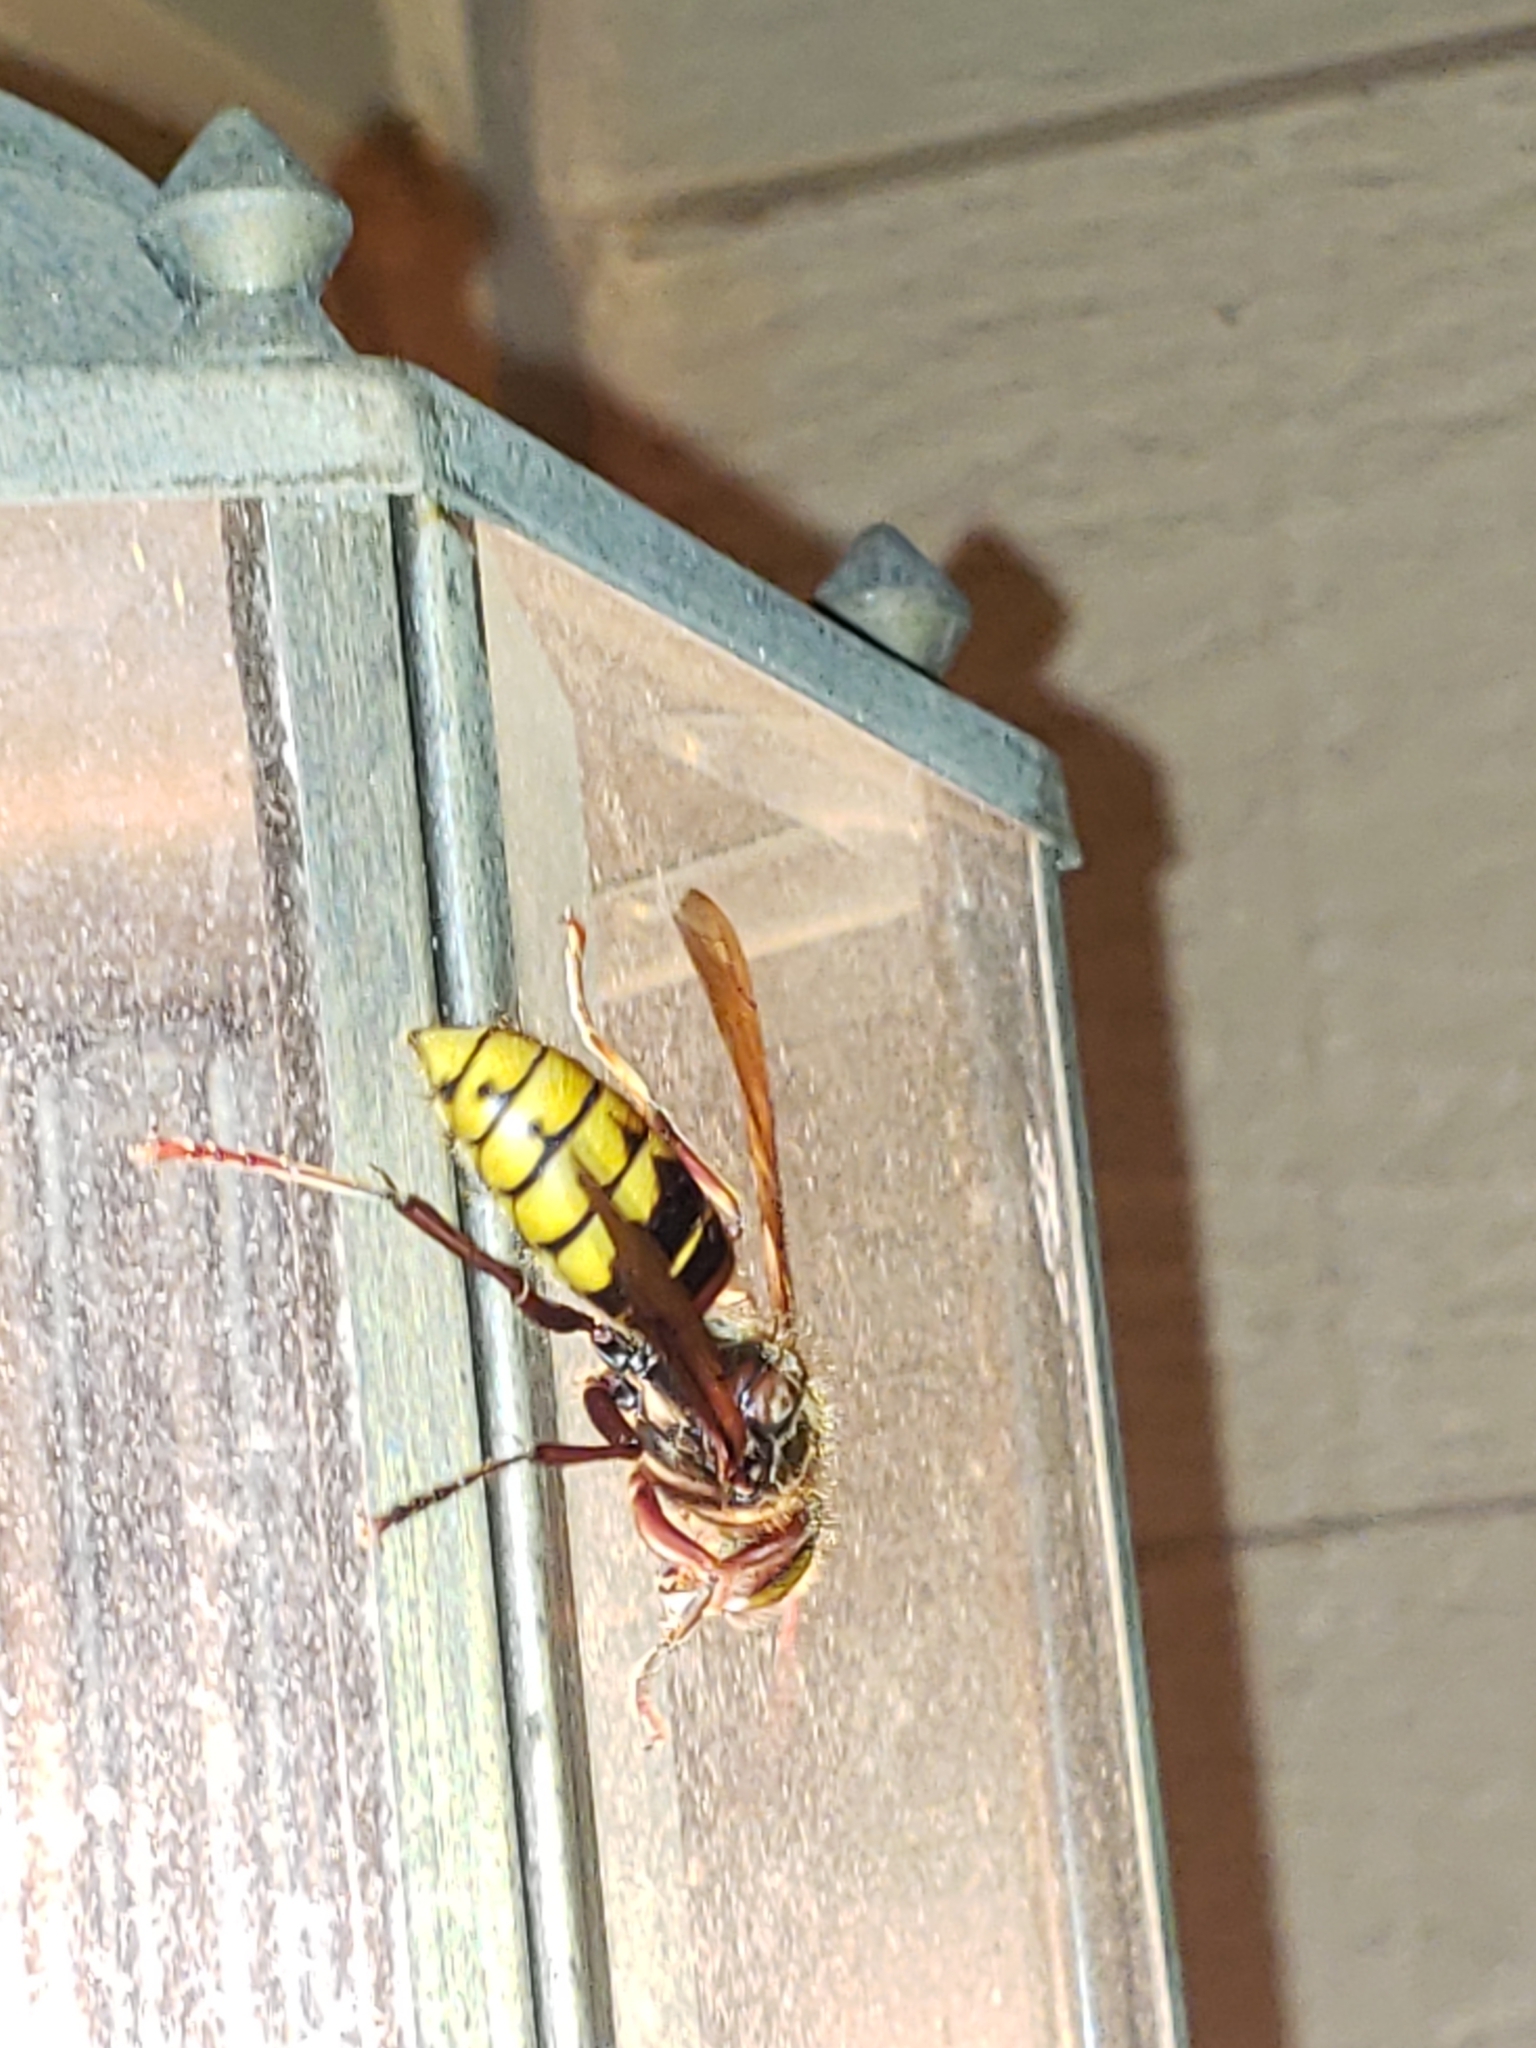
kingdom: Animalia
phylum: Arthropoda
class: Insecta
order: Hymenoptera
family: Vespidae
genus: Vespa
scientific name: Vespa crabro
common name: Hornet
